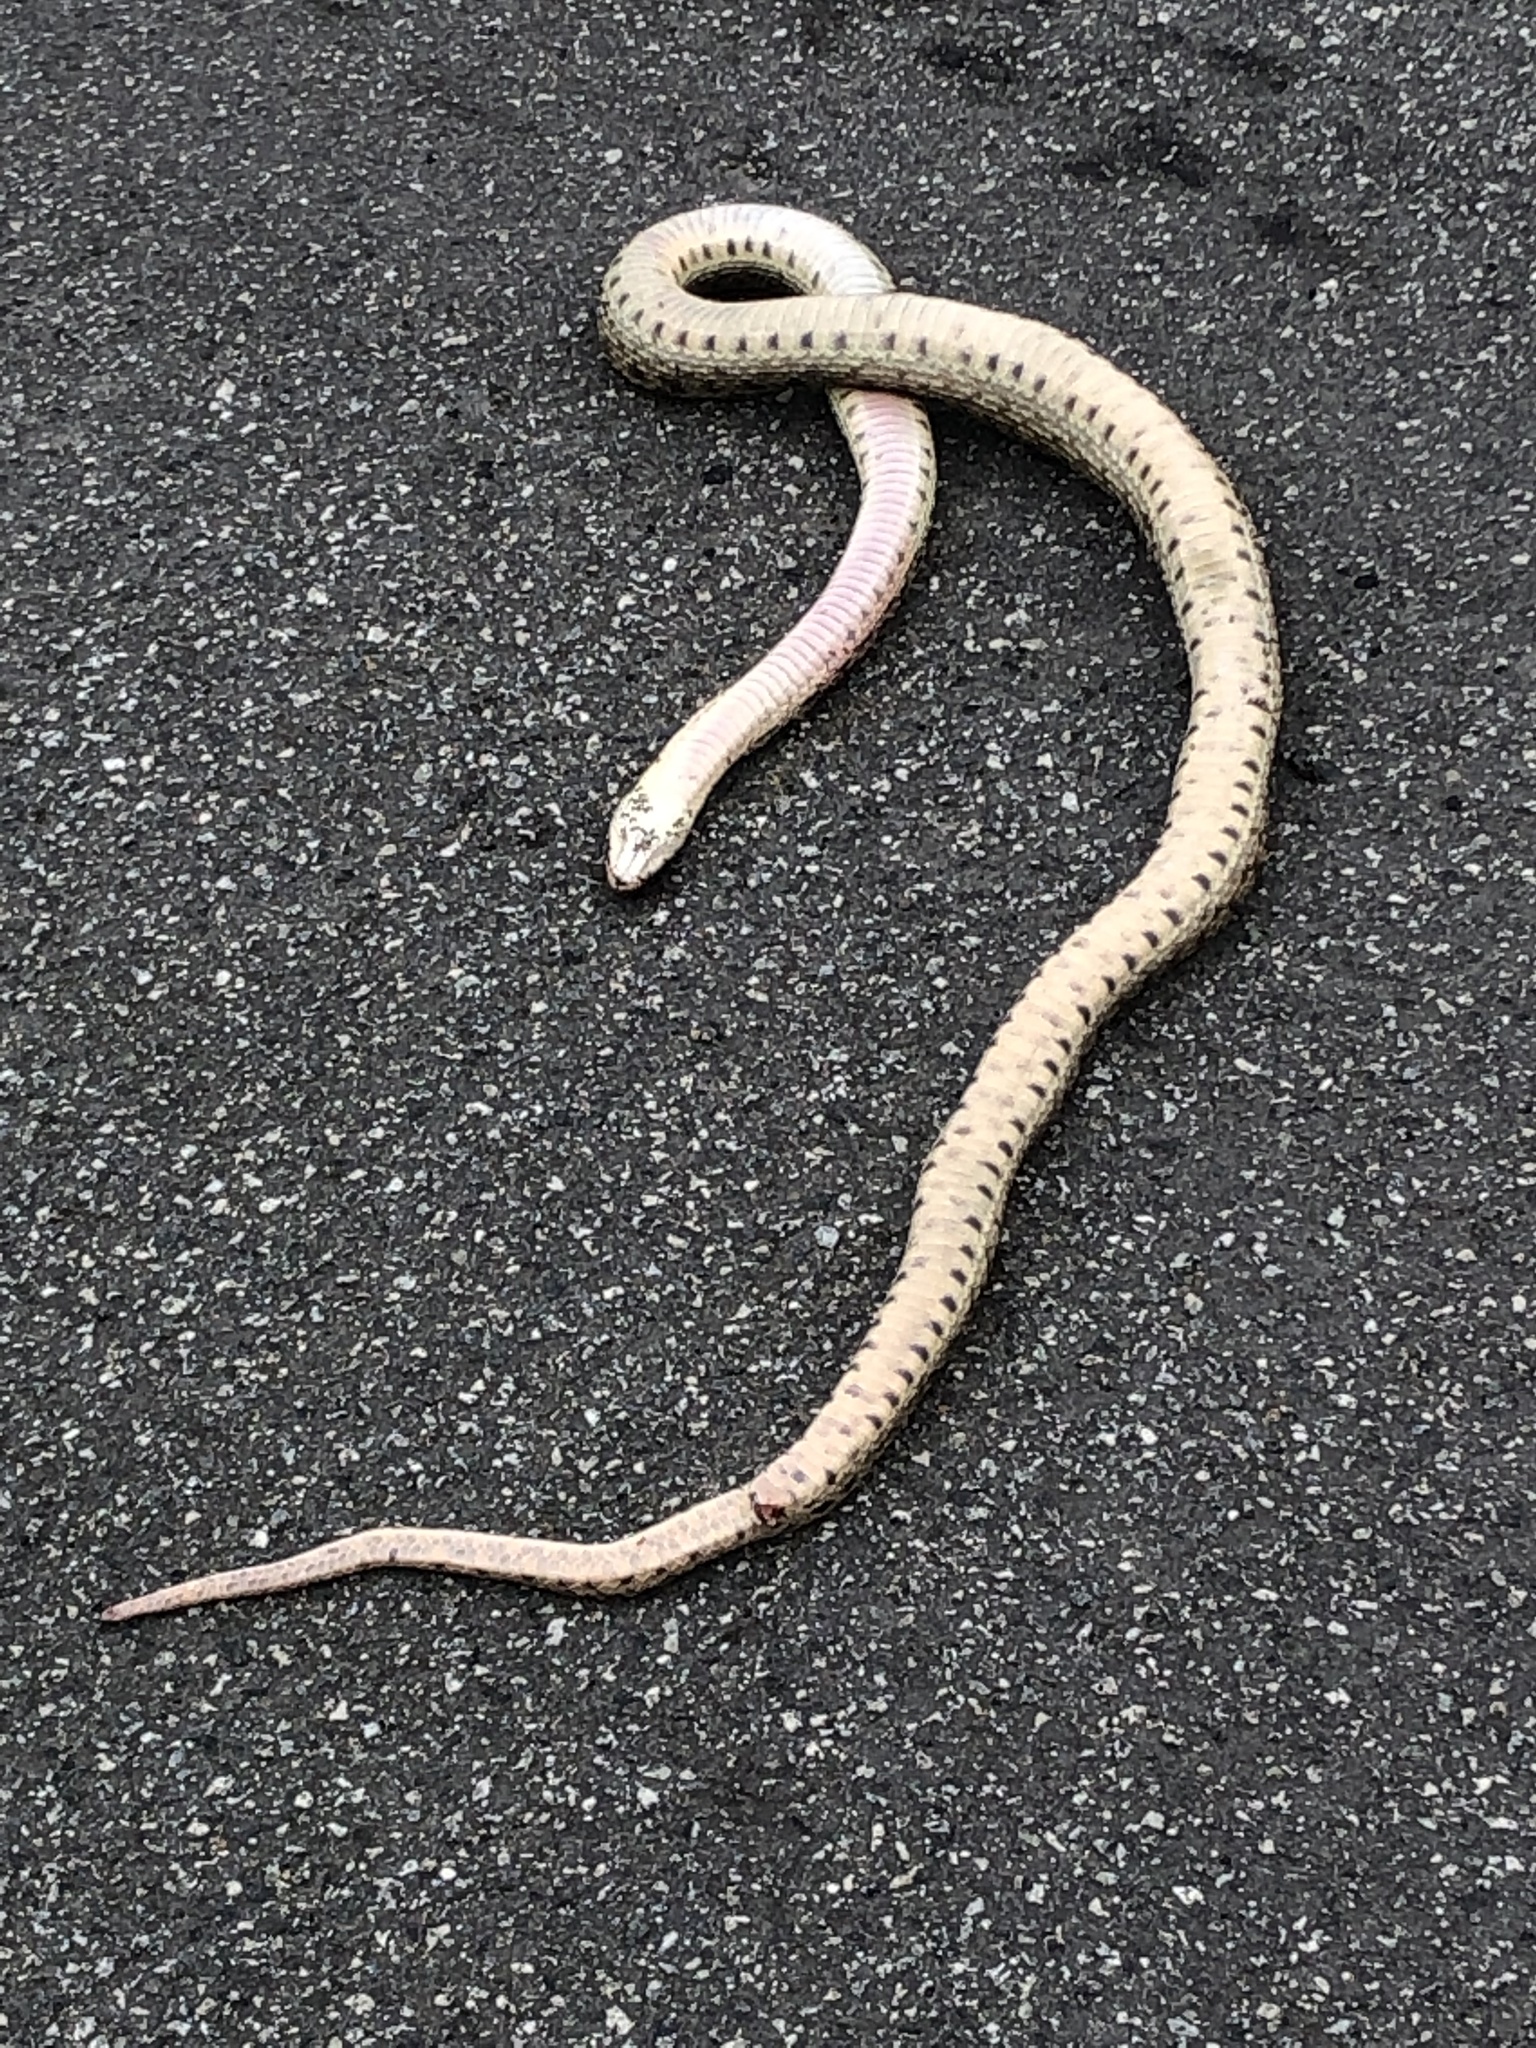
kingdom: Animalia
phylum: Chordata
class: Squamata
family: Colubridae
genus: Pituophis
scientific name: Pituophis catenifer
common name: Gopher snake
